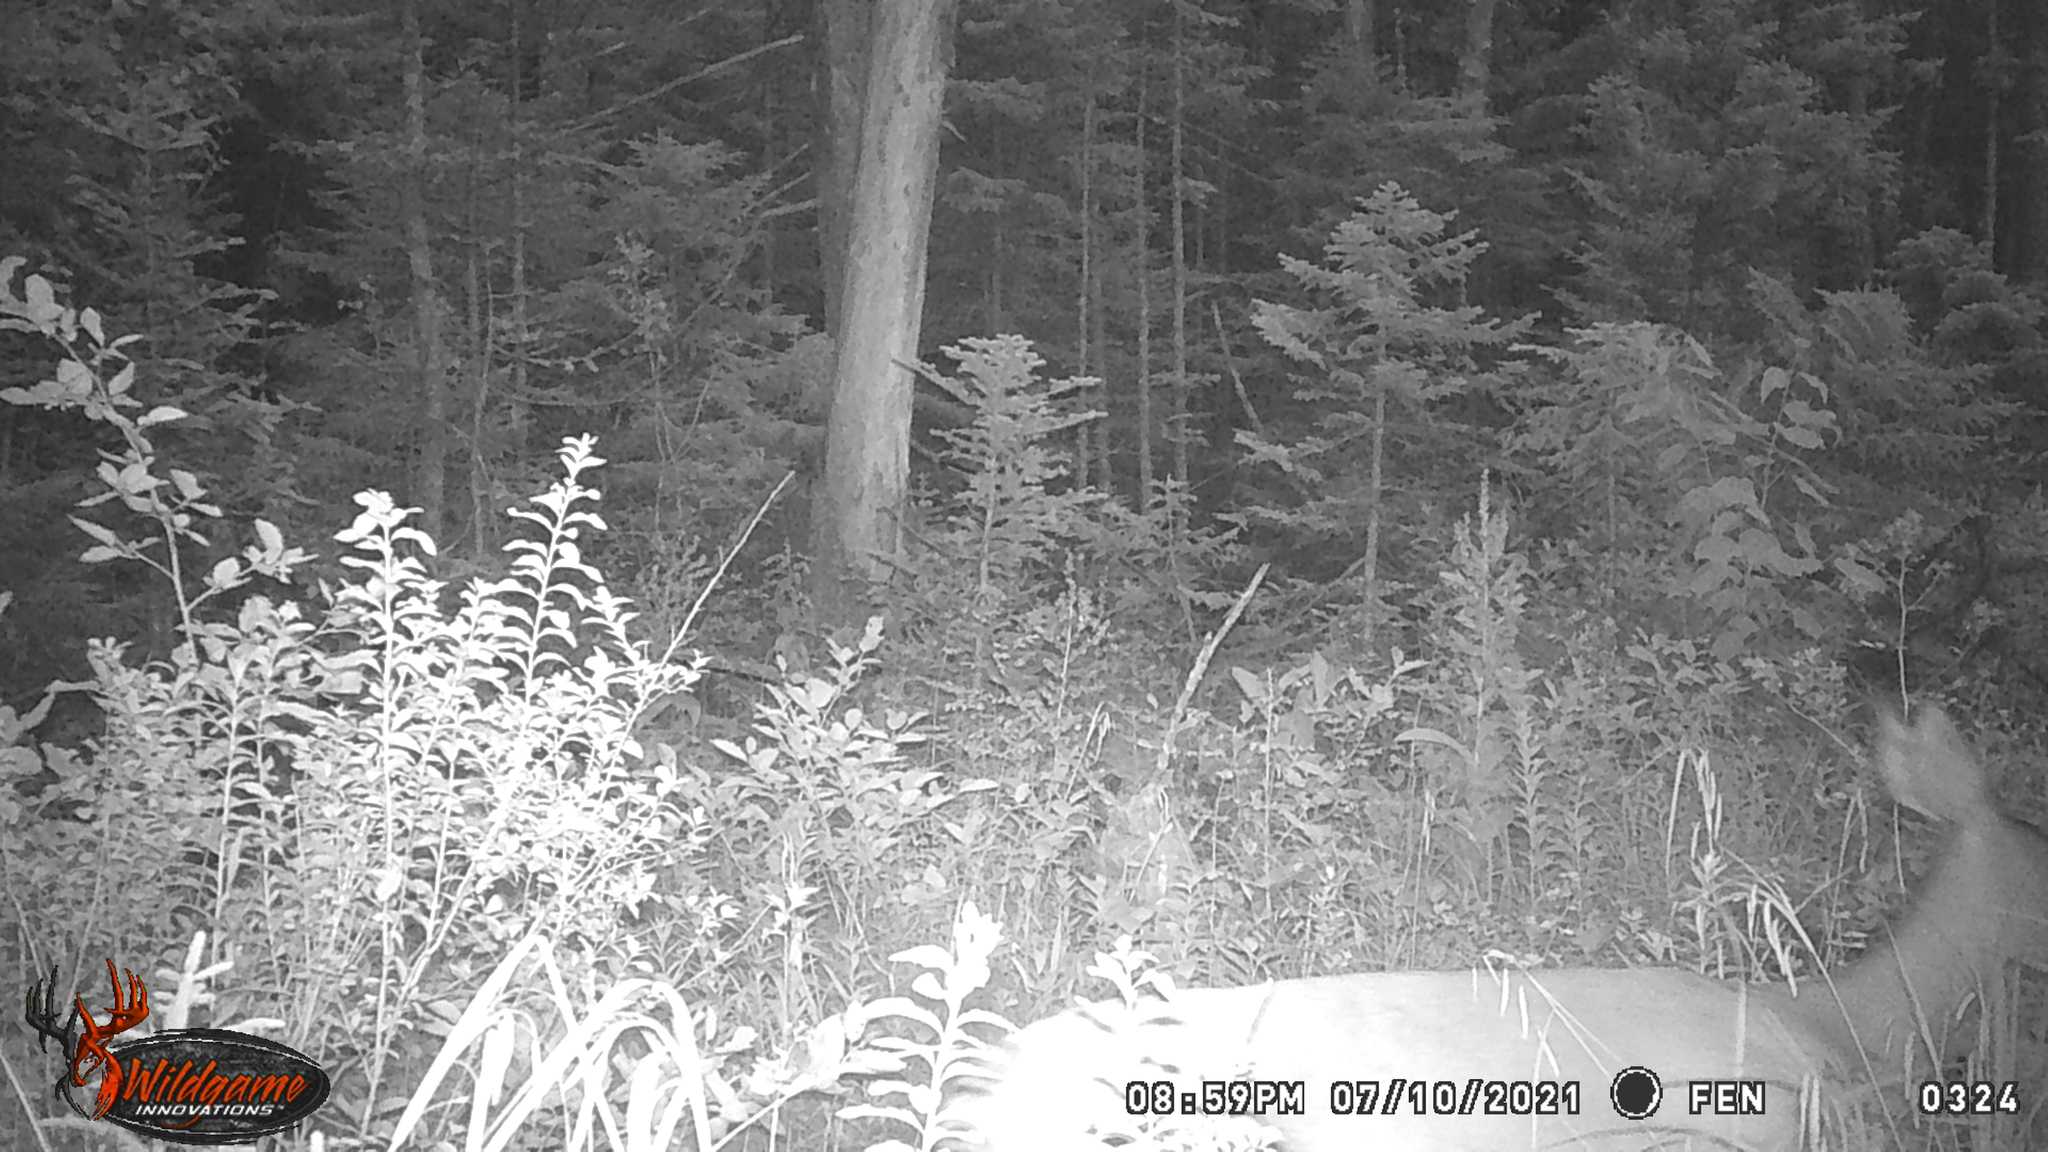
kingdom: Animalia
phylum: Chordata
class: Mammalia
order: Artiodactyla
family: Cervidae
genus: Odocoileus
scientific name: Odocoileus virginianus
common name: White-tailed deer
